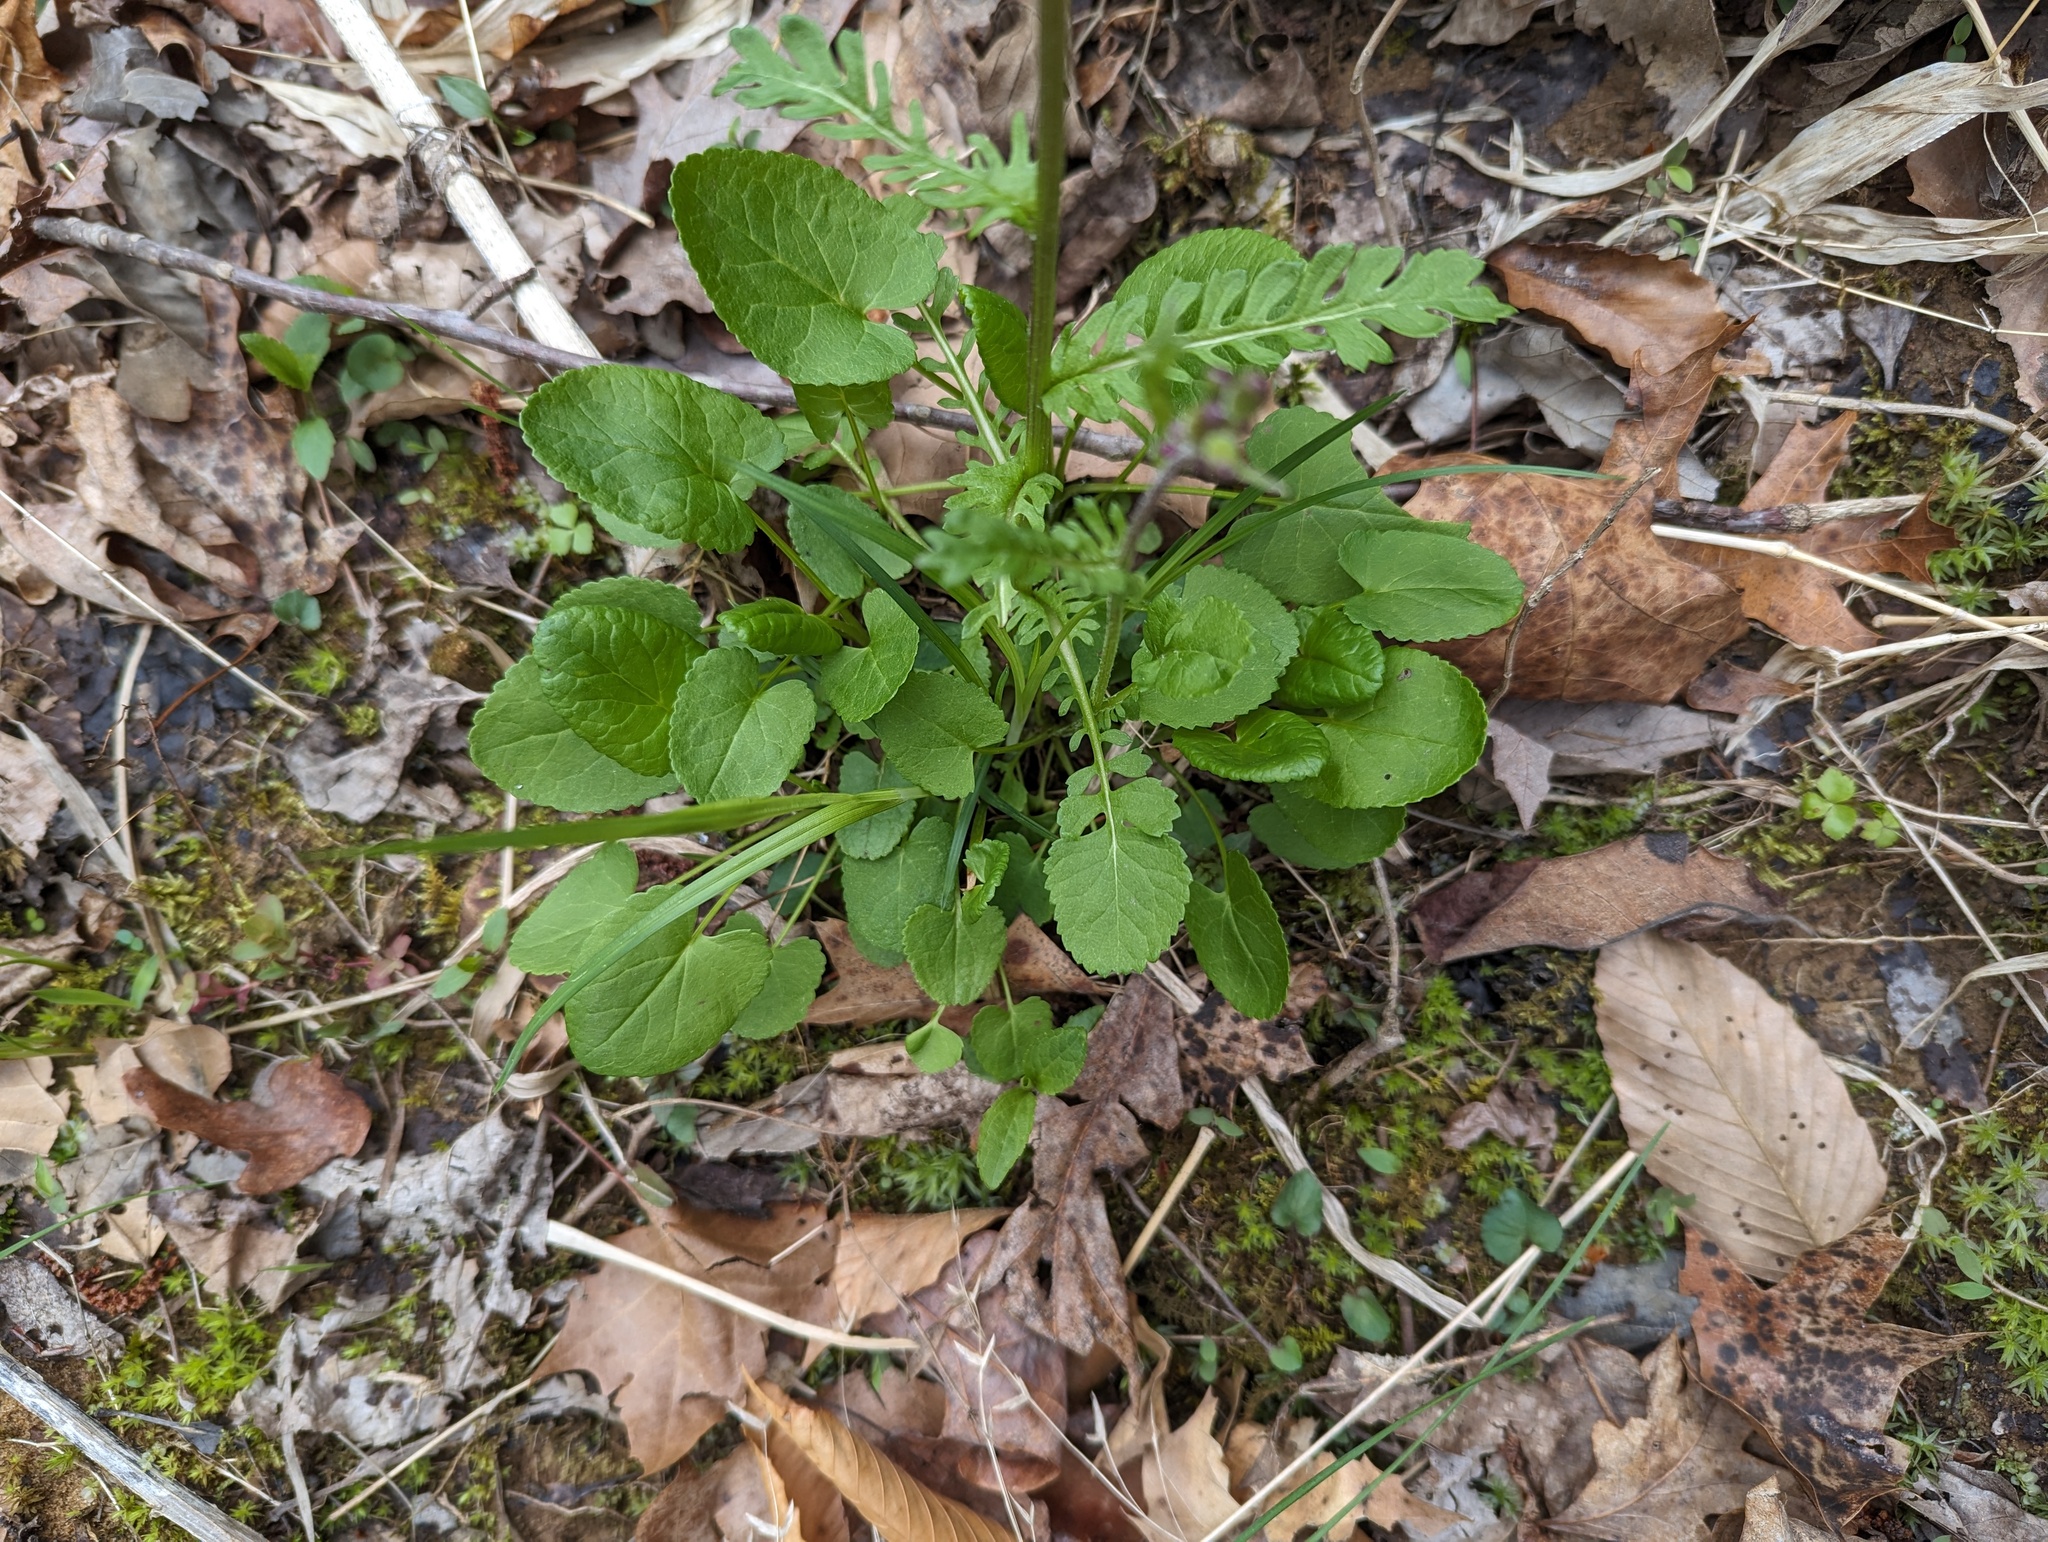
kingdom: Plantae
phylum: Tracheophyta
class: Magnoliopsida
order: Asterales
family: Asteraceae
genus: Packera
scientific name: Packera aurea
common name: Golden groundsel
